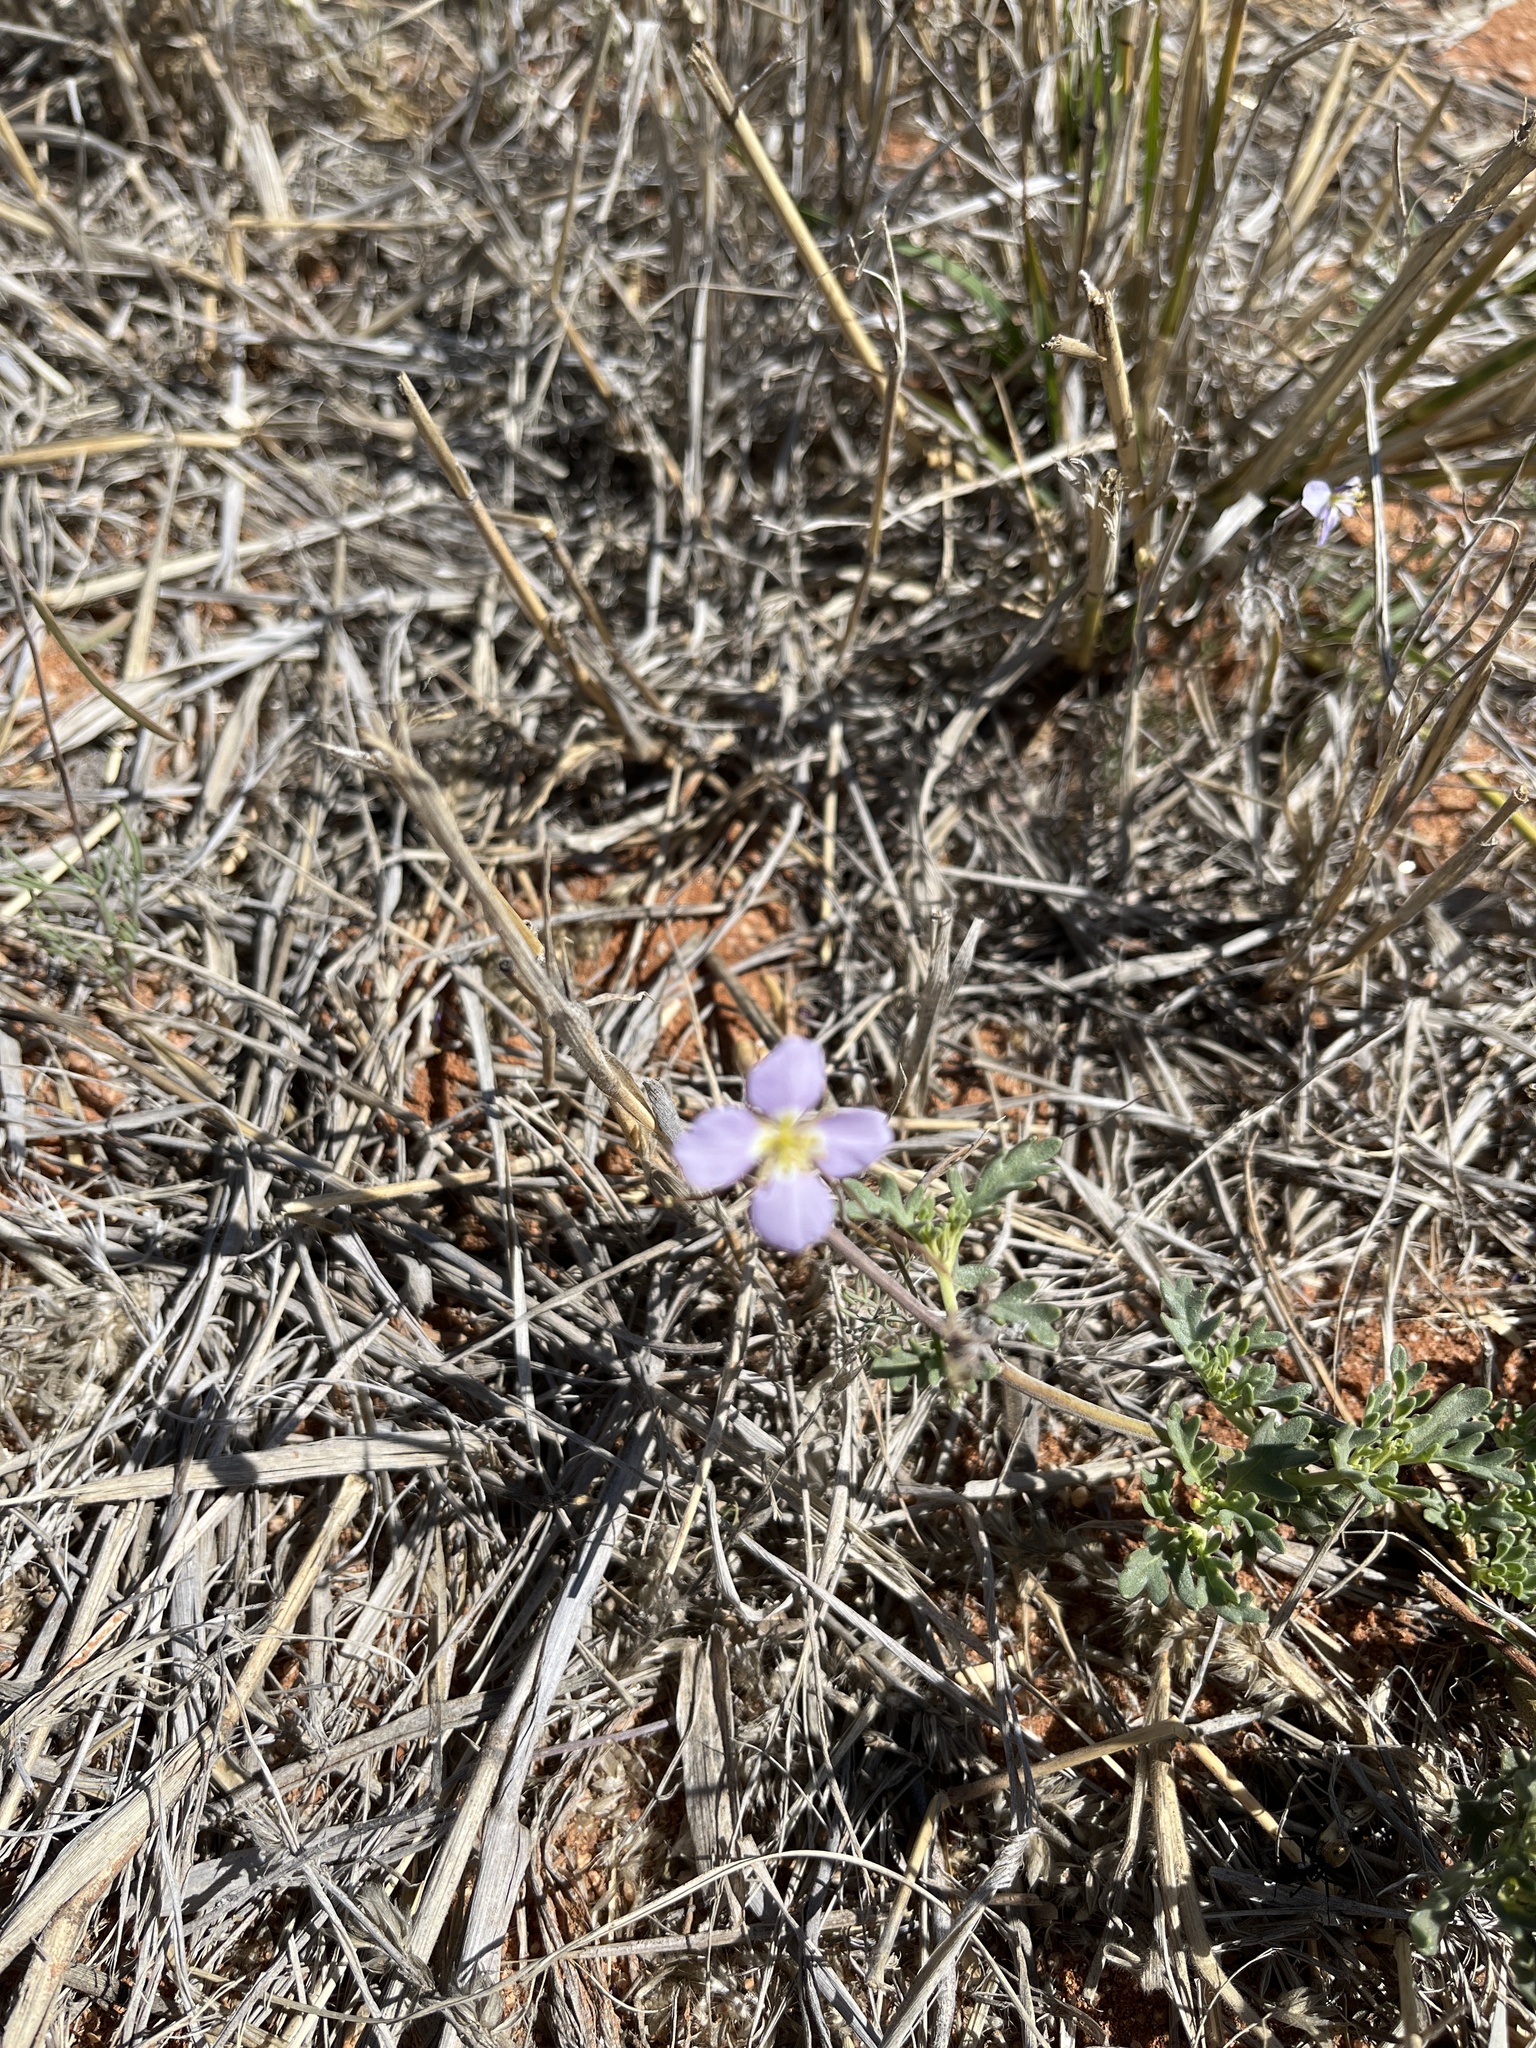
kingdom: Plantae
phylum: Tracheophyta
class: Magnoliopsida
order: Brassicales
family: Brassicaceae
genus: Heliophila
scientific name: Heliophila deserticola
